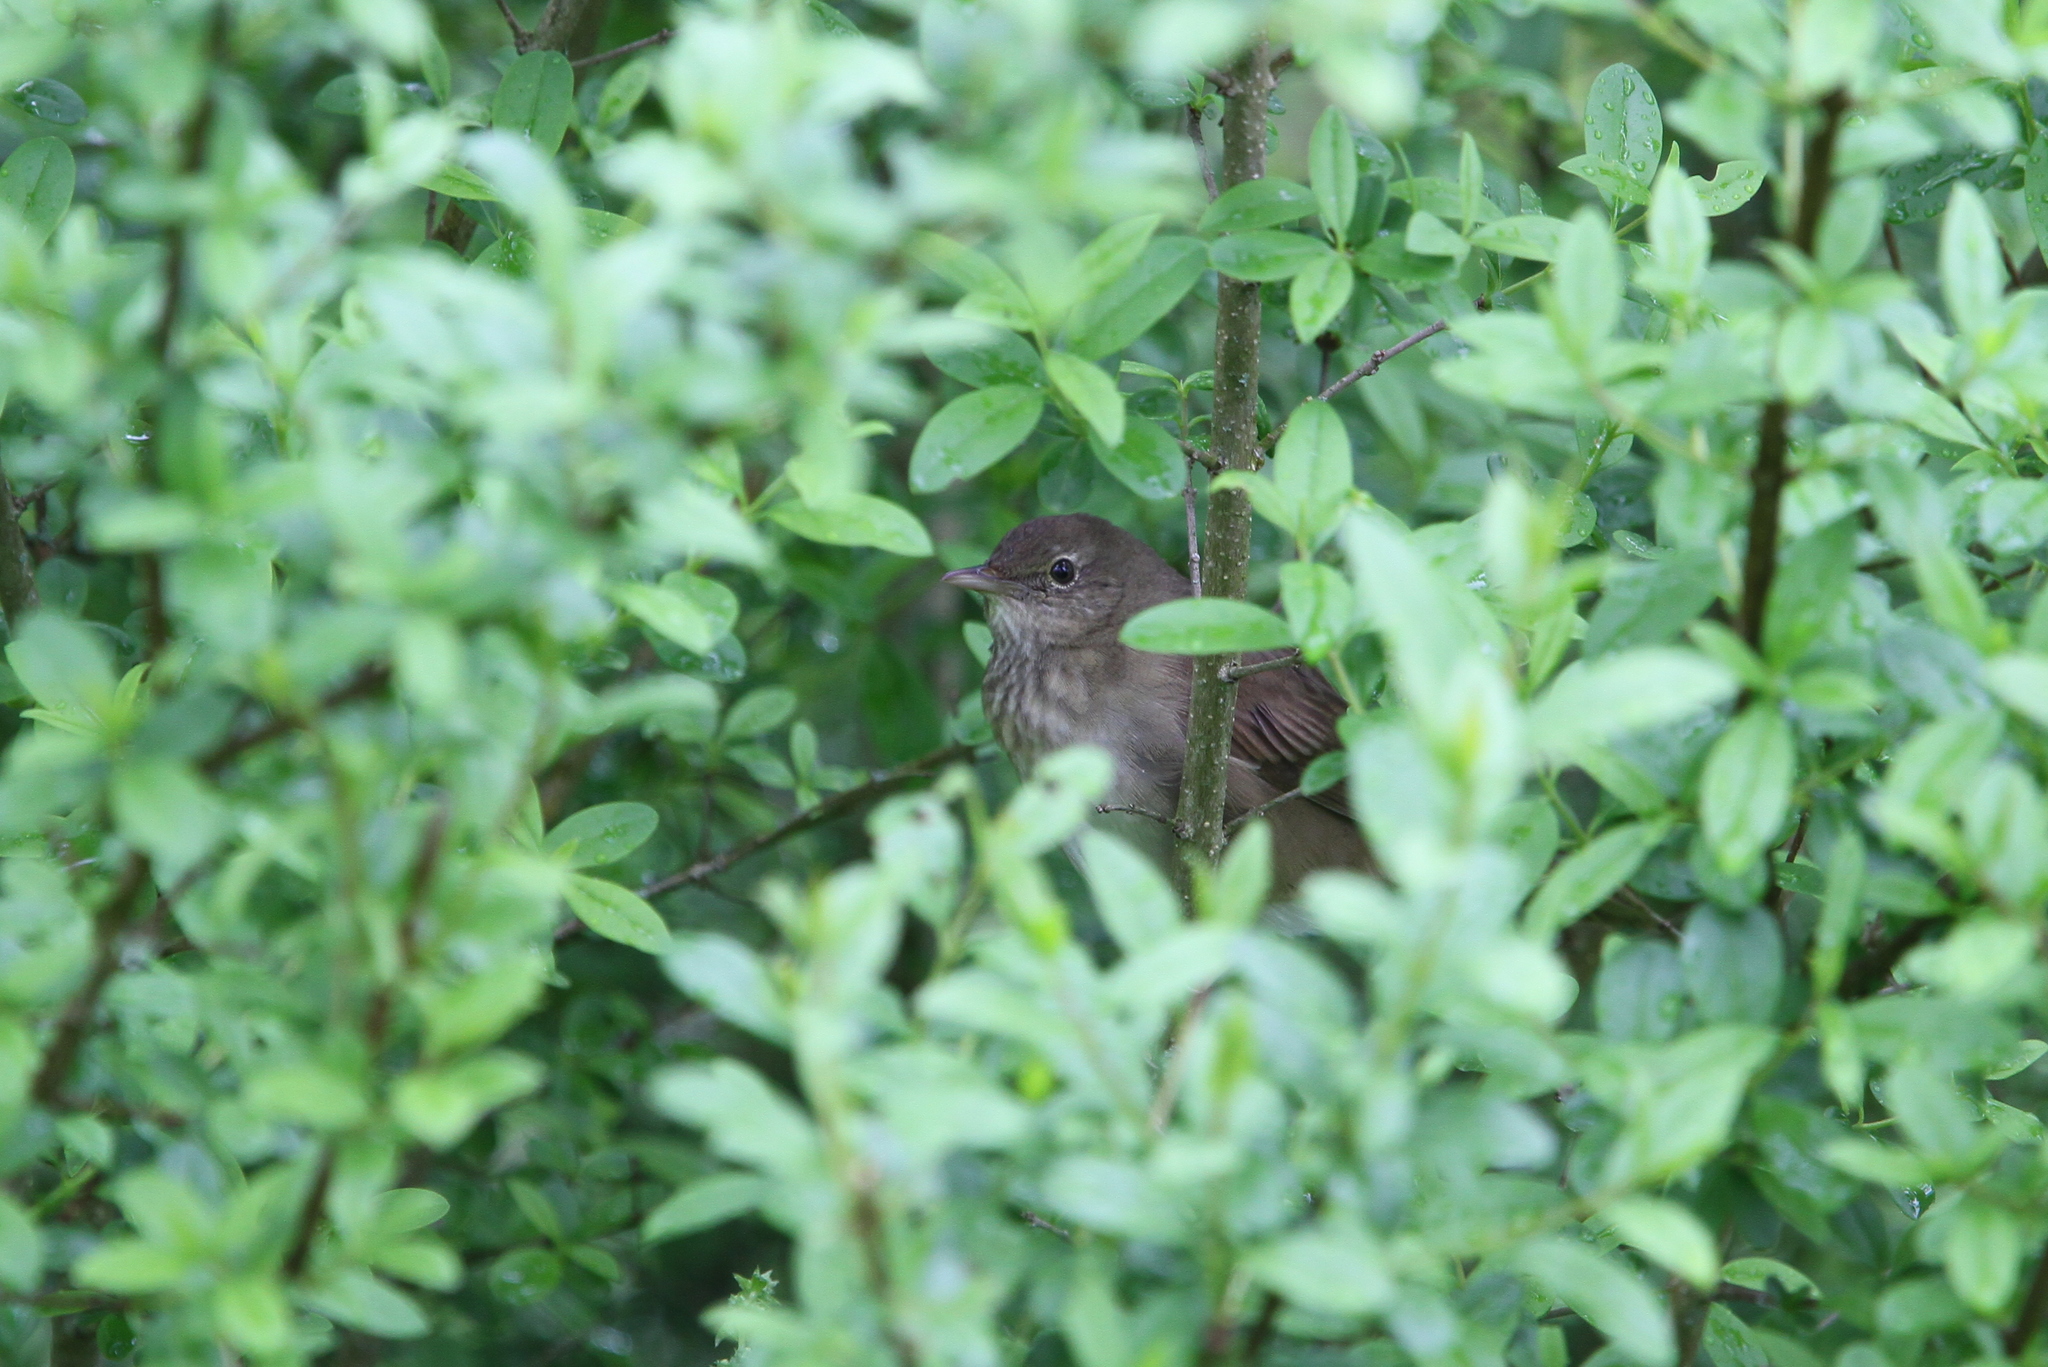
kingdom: Animalia
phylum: Chordata
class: Aves
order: Passeriformes
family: Locustellidae
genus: Locustella
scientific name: Locustella fluviatilis
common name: River warbler
